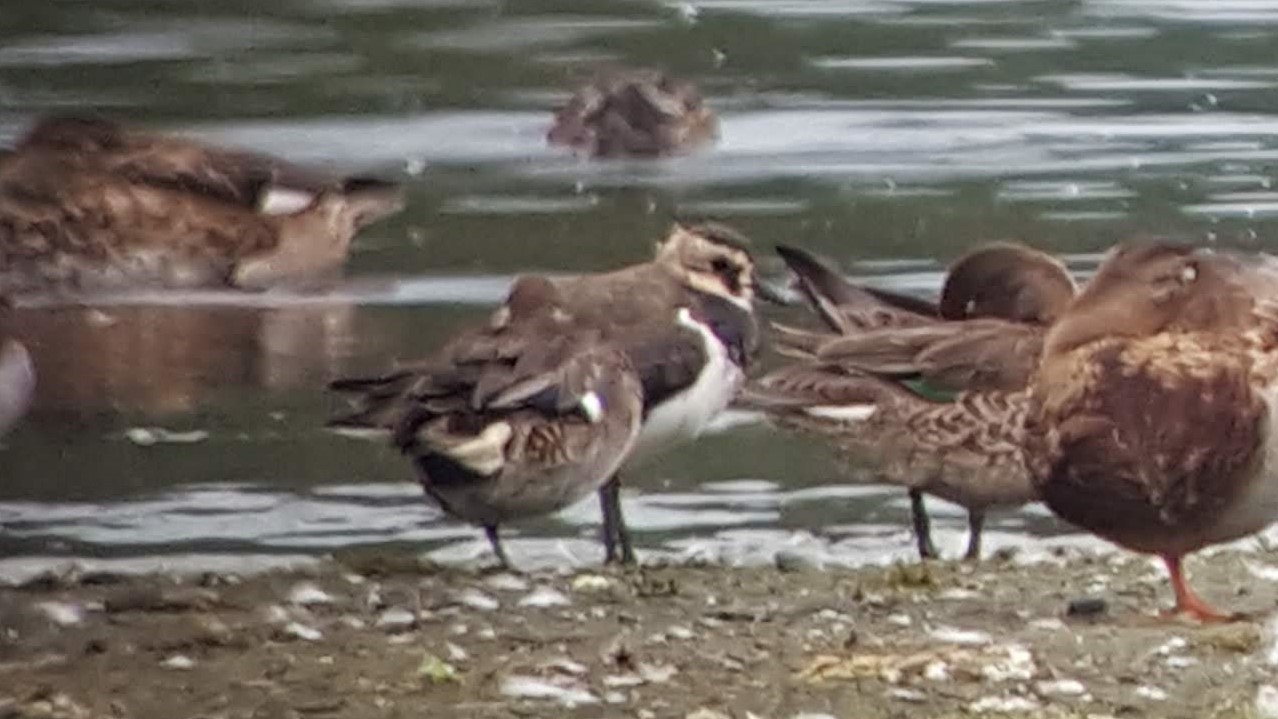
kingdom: Animalia
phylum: Chordata
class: Aves
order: Charadriiformes
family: Charadriidae
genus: Vanellus
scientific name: Vanellus vanellus
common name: Northern lapwing
